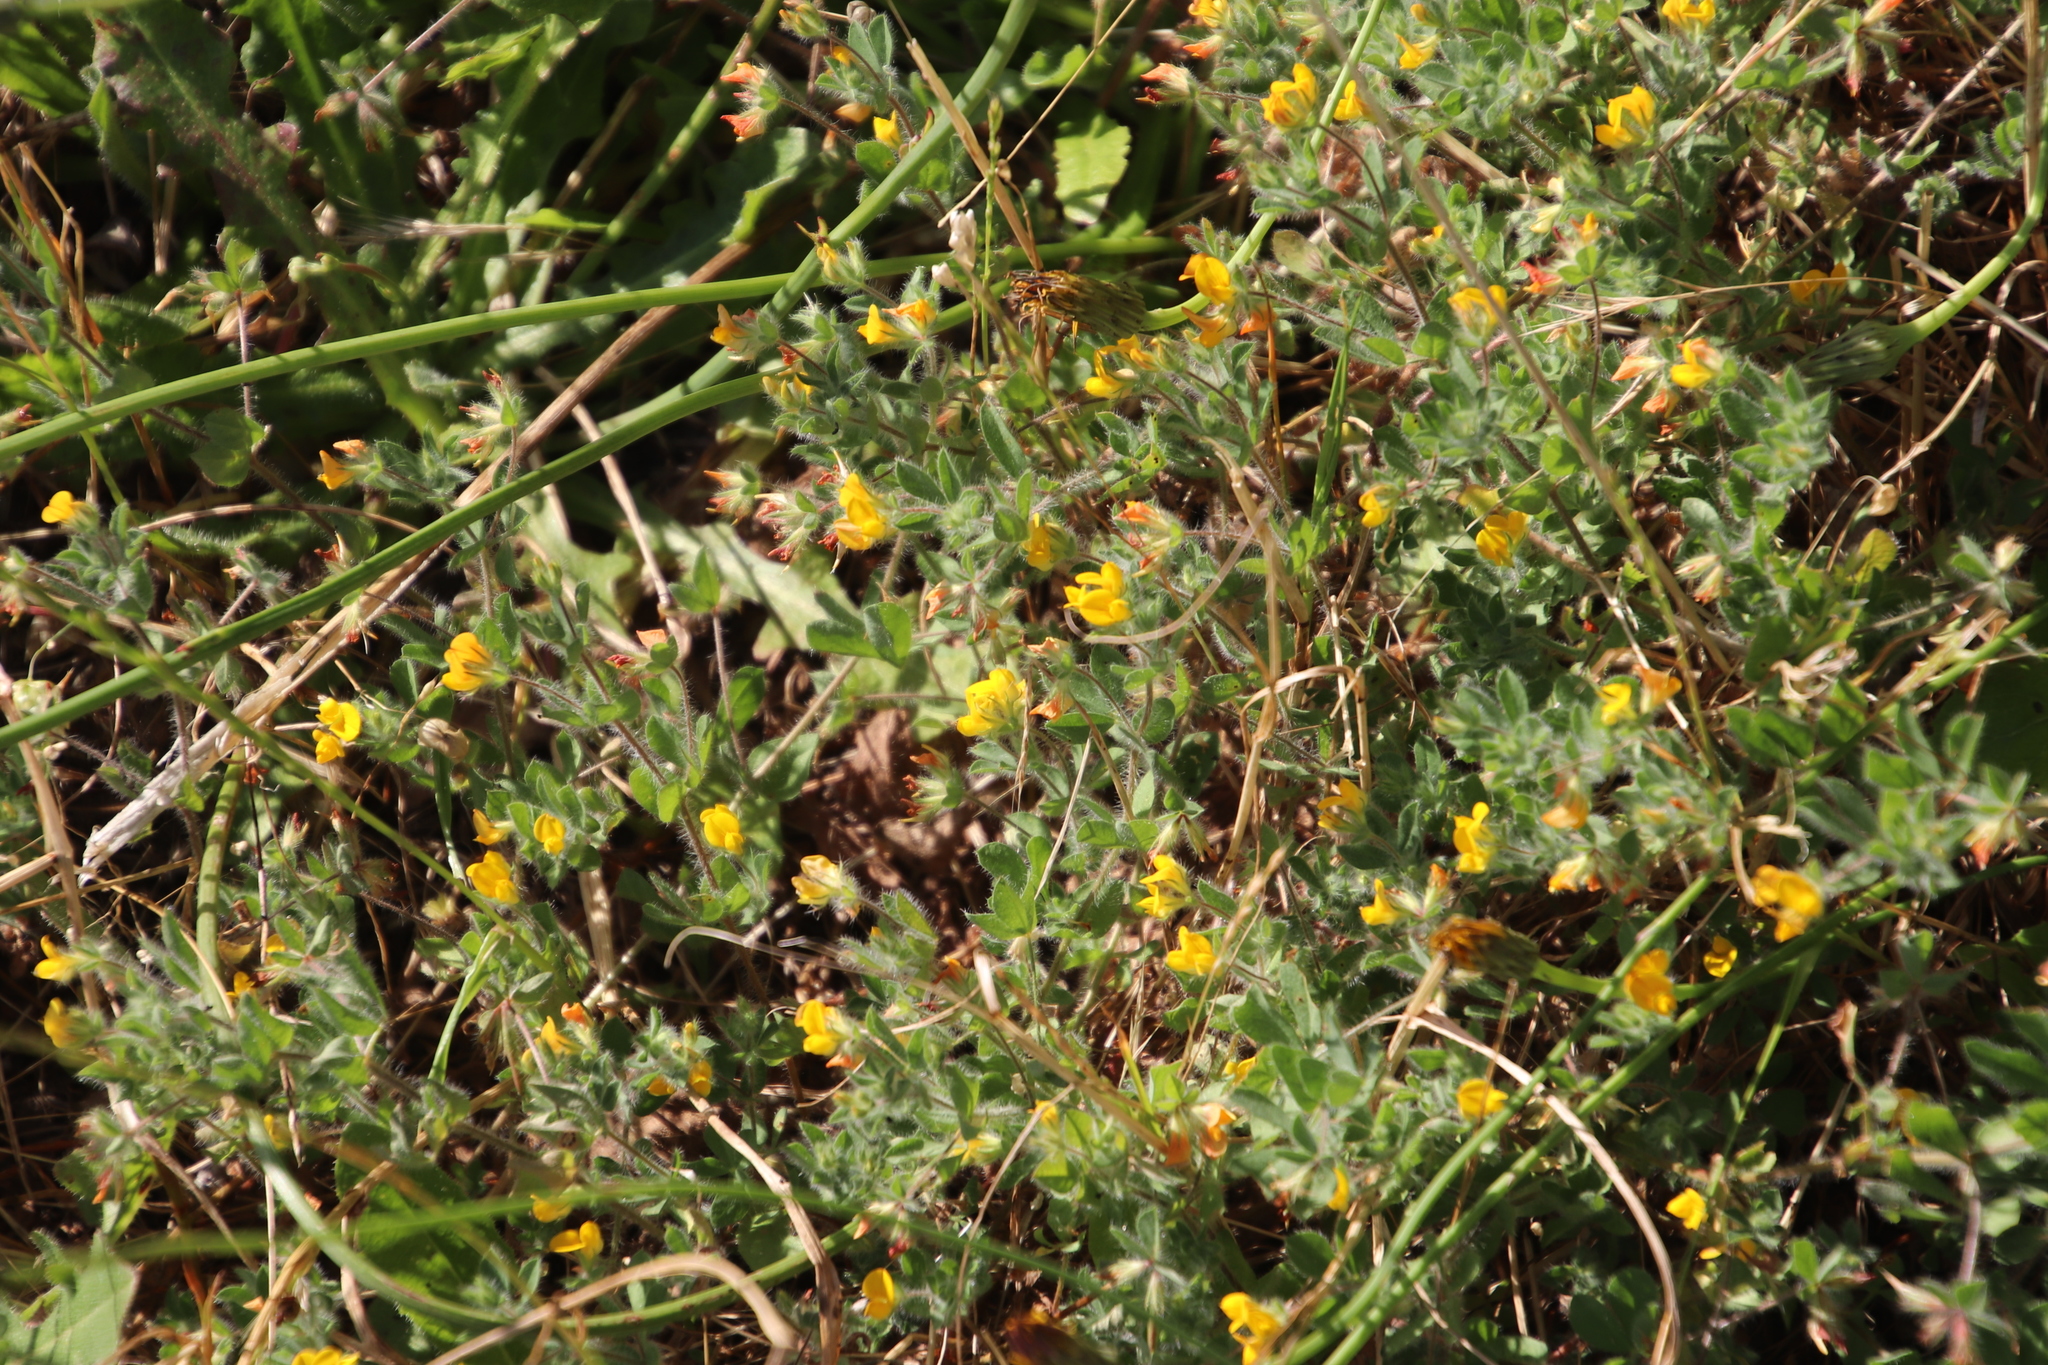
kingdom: Plantae
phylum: Tracheophyta
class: Magnoliopsida
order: Fabales
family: Fabaceae
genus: Lotus
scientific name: Lotus subbiflorus
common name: Hairy bird's-foot trefoil
